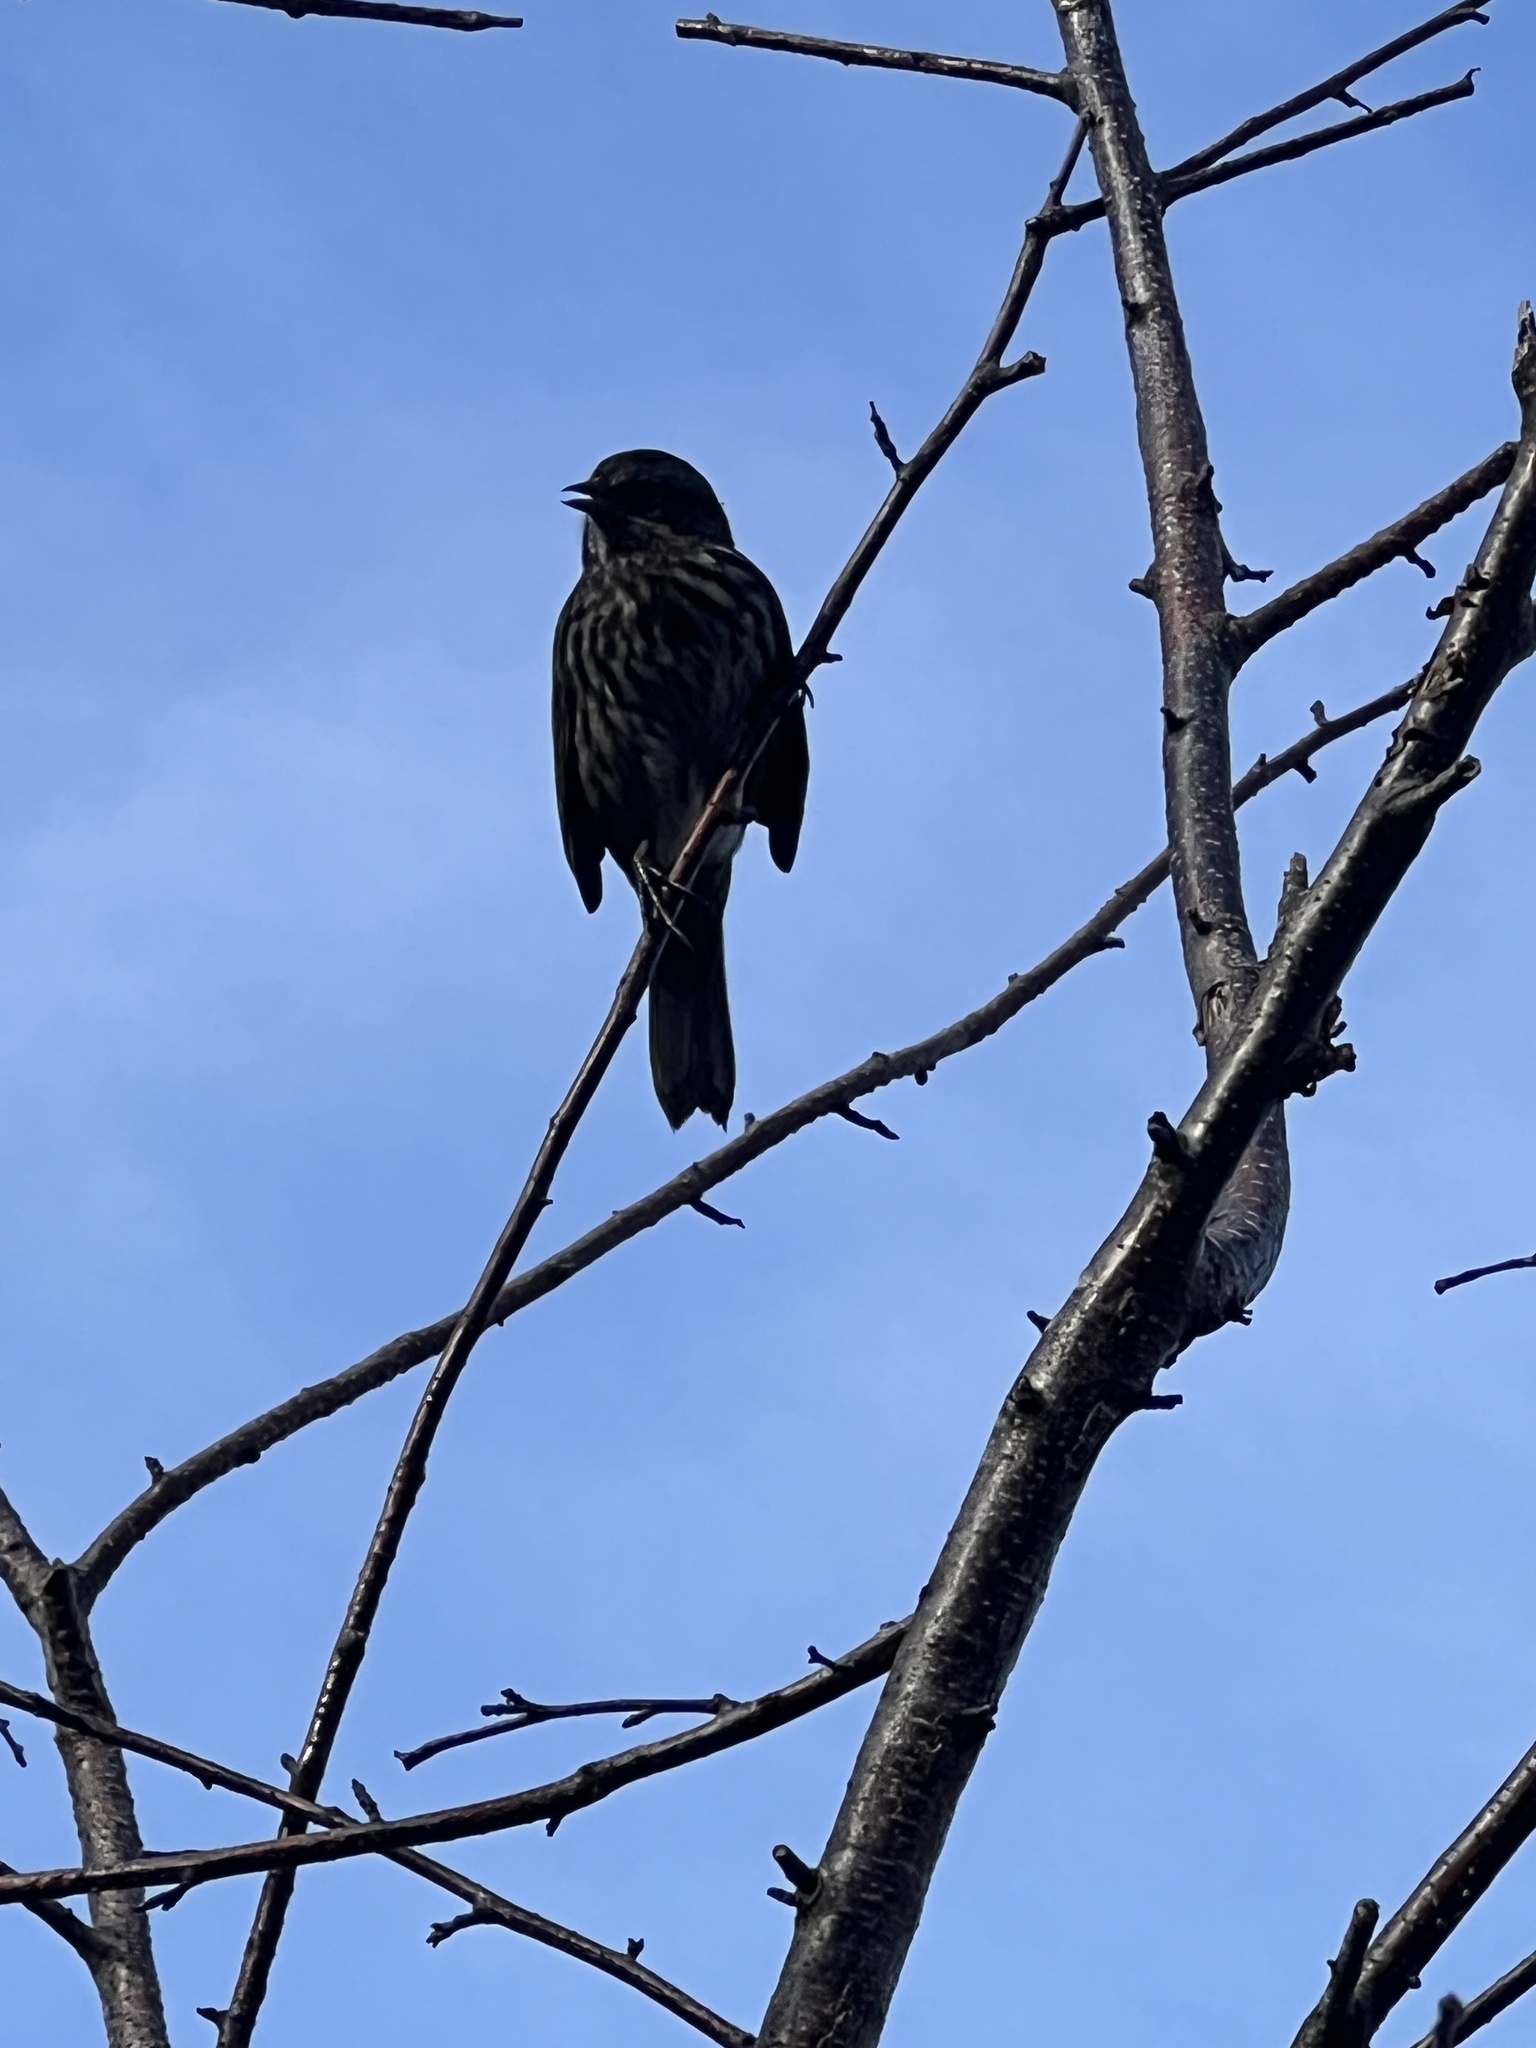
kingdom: Animalia
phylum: Chordata
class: Aves
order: Passeriformes
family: Passerellidae
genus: Melospiza
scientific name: Melospiza melodia
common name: Song sparrow
